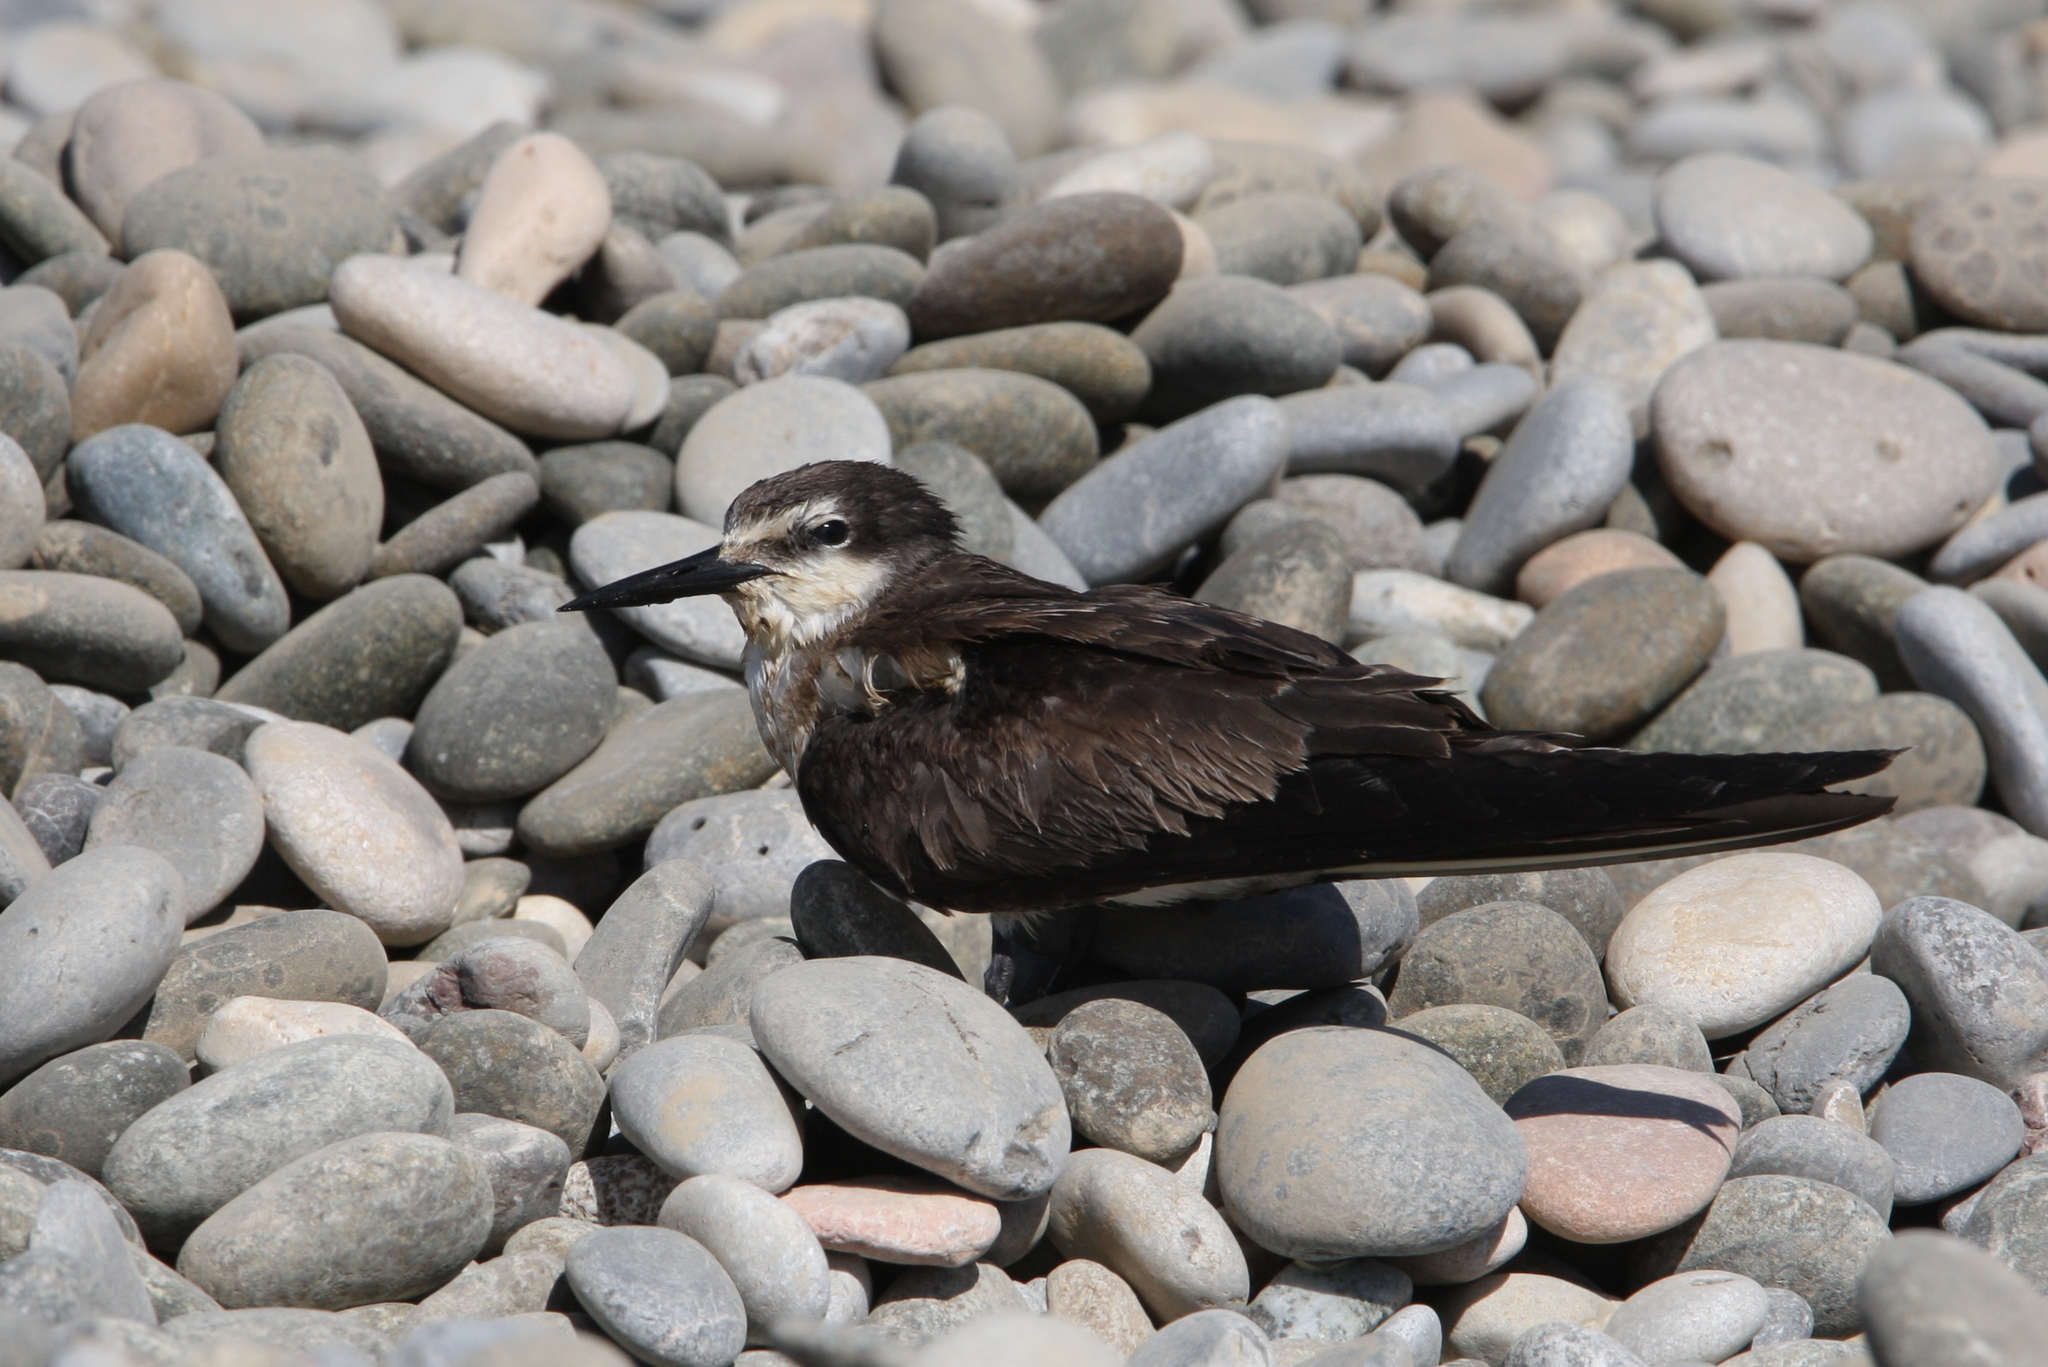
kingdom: Animalia
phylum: Chordata
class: Aves
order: Charadriiformes
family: Laridae
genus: Onychoprion
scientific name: Onychoprion anaethetus
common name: Bridled tern
